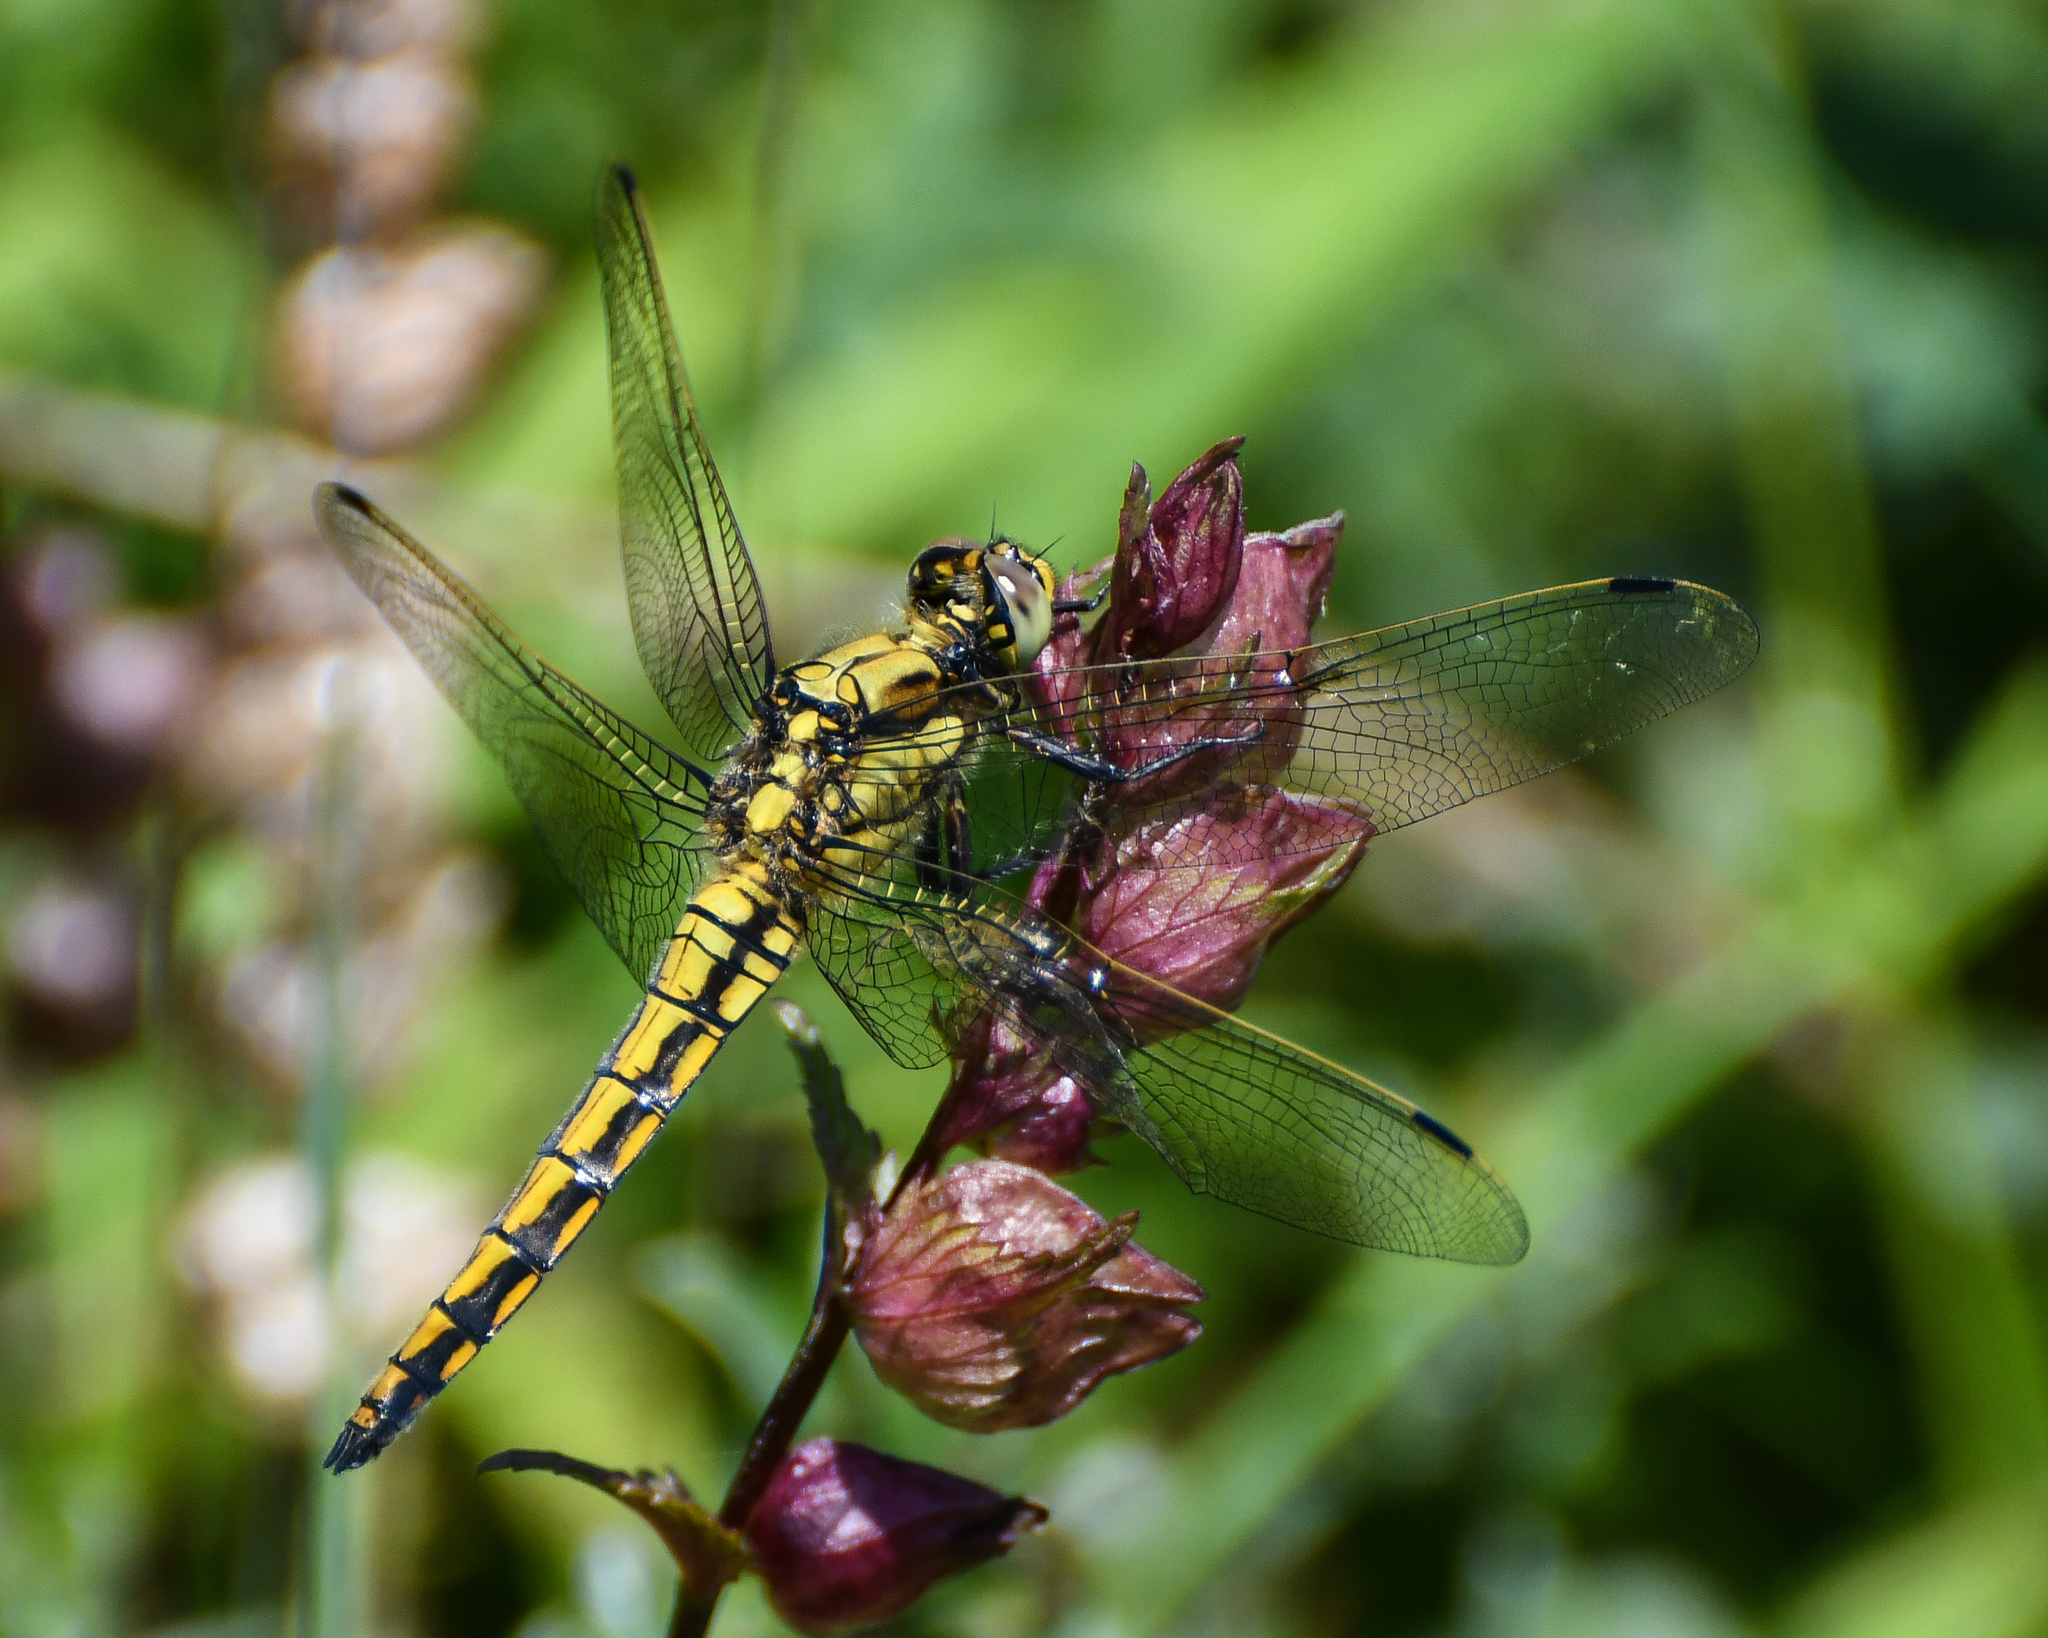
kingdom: Animalia
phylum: Arthropoda
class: Insecta
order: Odonata
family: Libellulidae
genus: Orthetrum
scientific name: Orthetrum cancellatum
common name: Black-tailed skimmer
